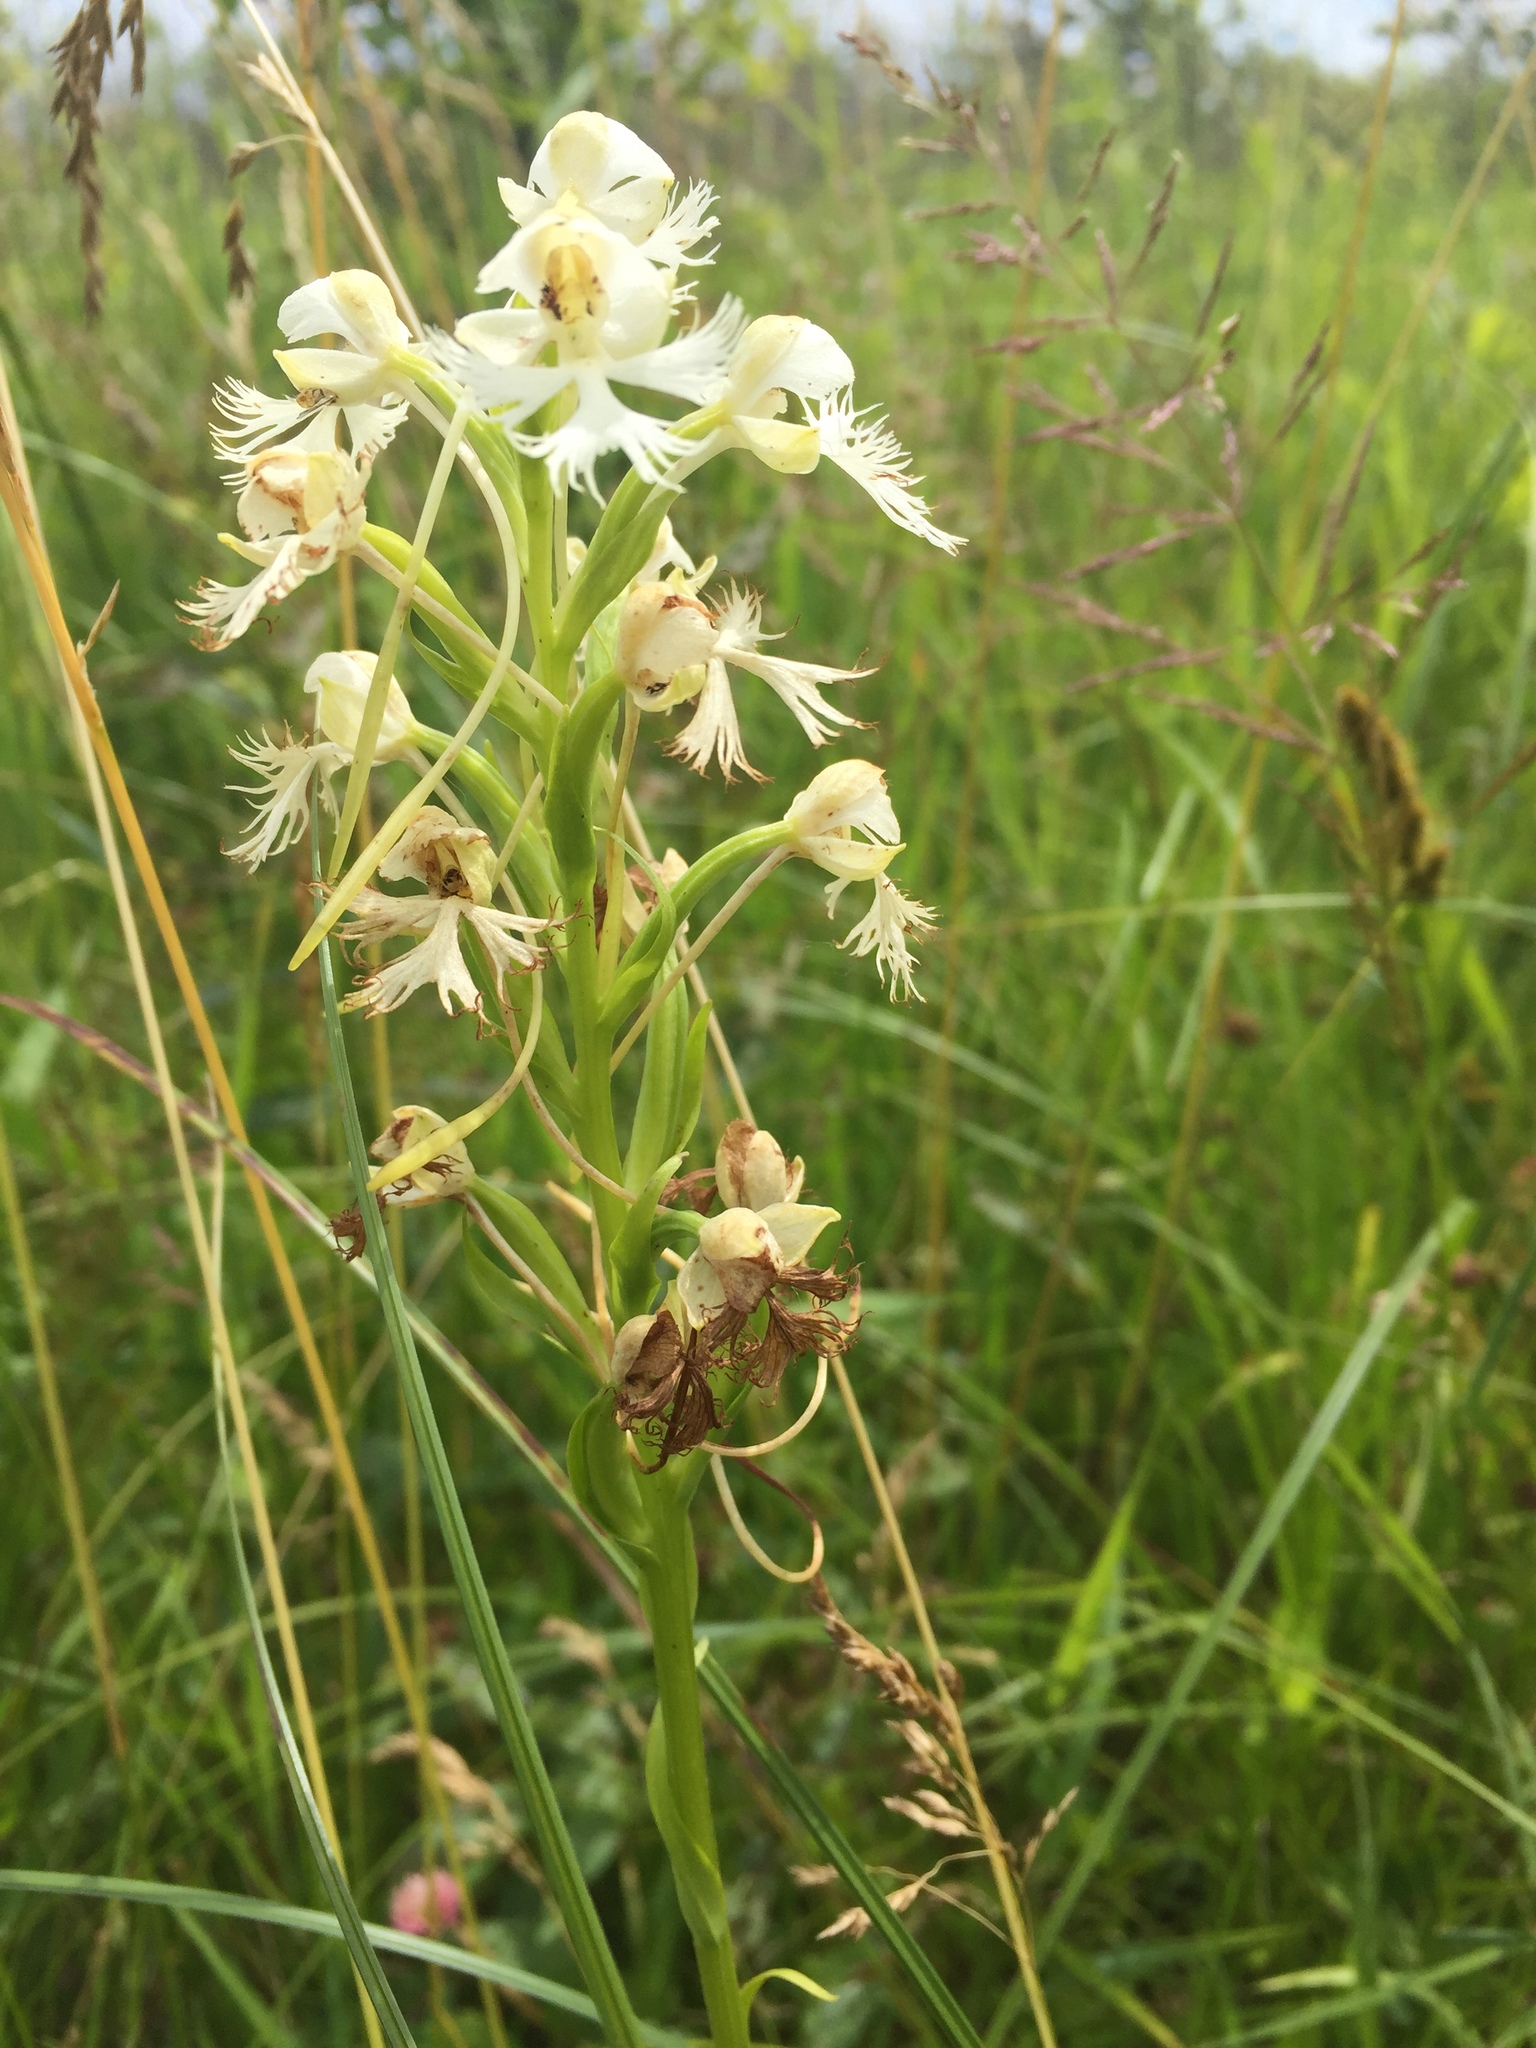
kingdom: Plantae
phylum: Tracheophyta
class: Liliopsida
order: Asparagales
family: Orchidaceae
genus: Platanthera
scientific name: Platanthera leucophaea
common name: Eastern prairie white-fringed orchid
